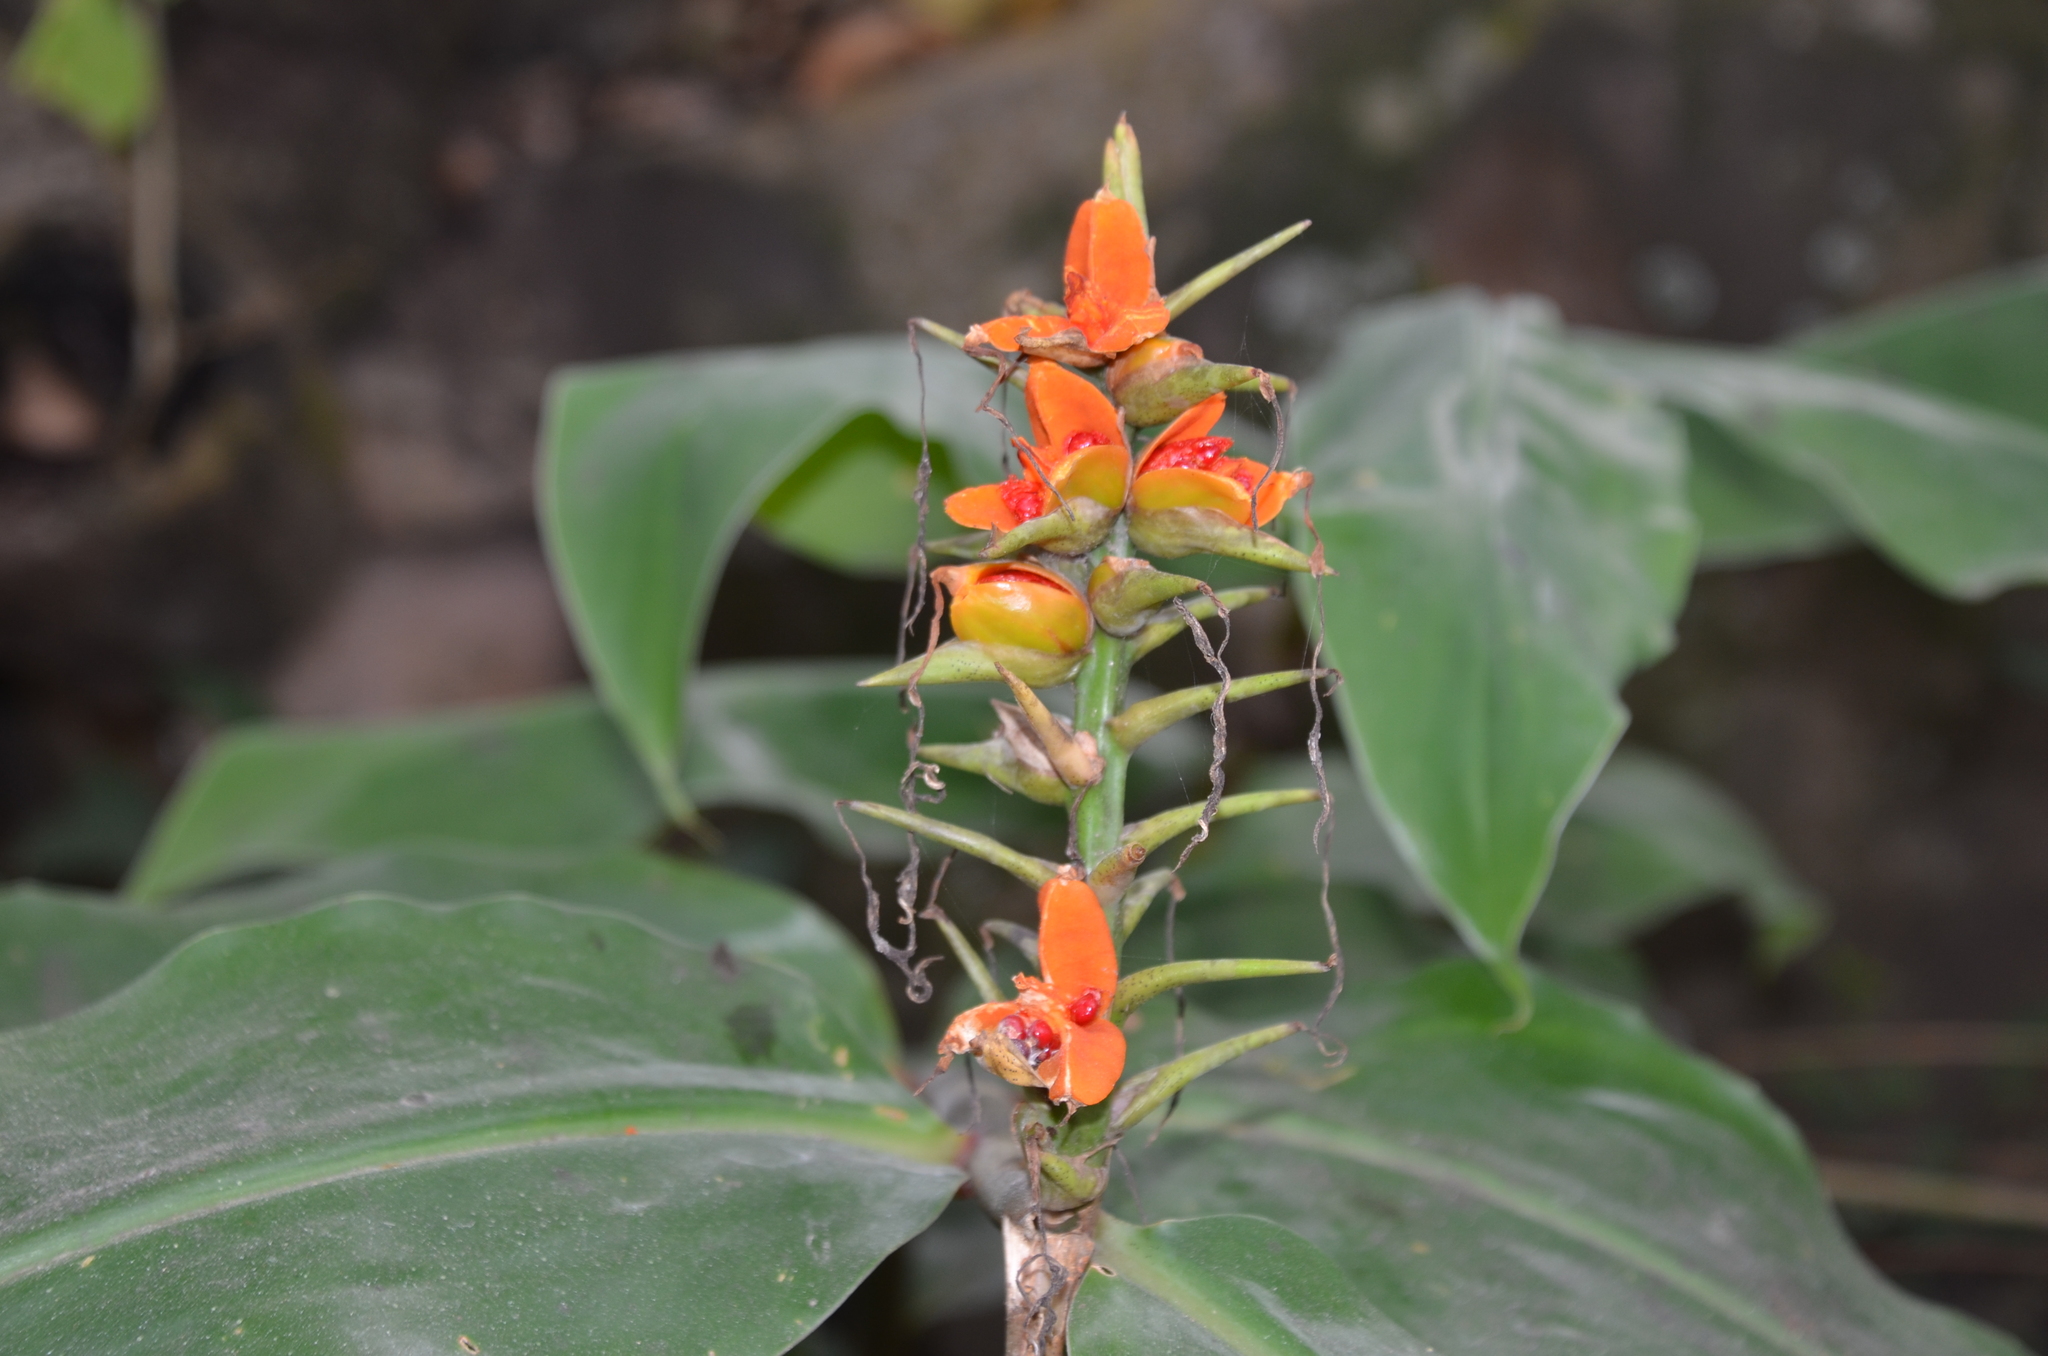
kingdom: Plantae
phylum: Tracheophyta
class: Liliopsida
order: Zingiberales
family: Zingiberaceae
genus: Hedychium
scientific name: Hedychium gardnerianum
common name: Himalayan ginger
